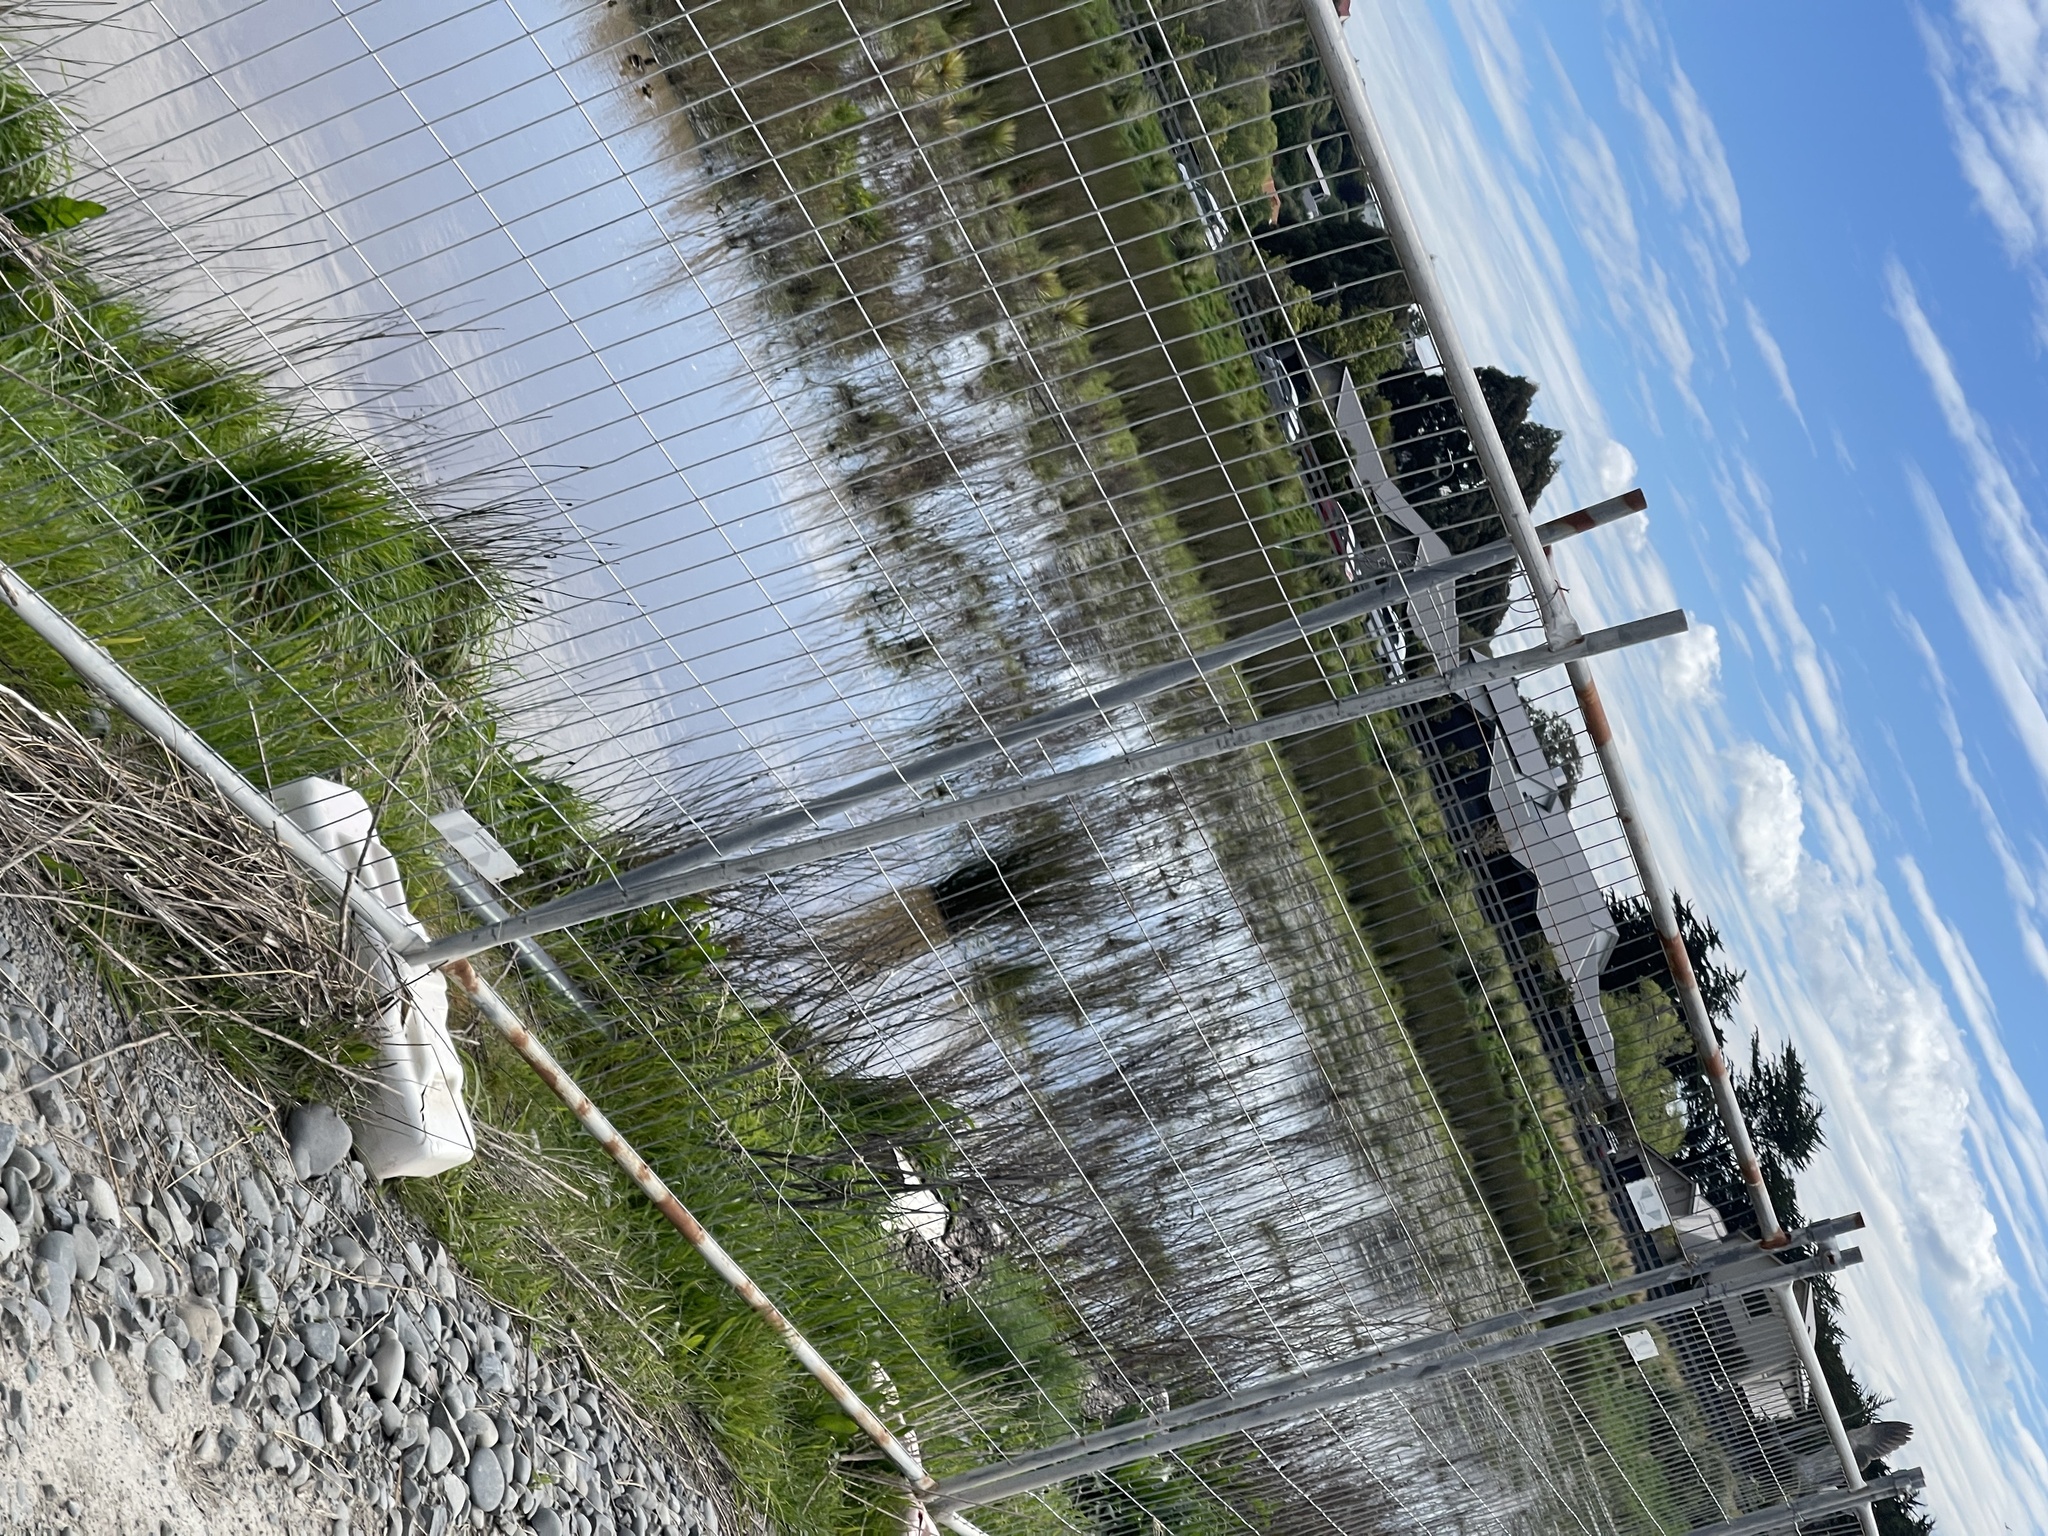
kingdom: Animalia
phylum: Chordata
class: Aves
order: Pelecaniformes
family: Ardeidae
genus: Egretta
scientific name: Egretta novaehollandiae
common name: White-faced heron
